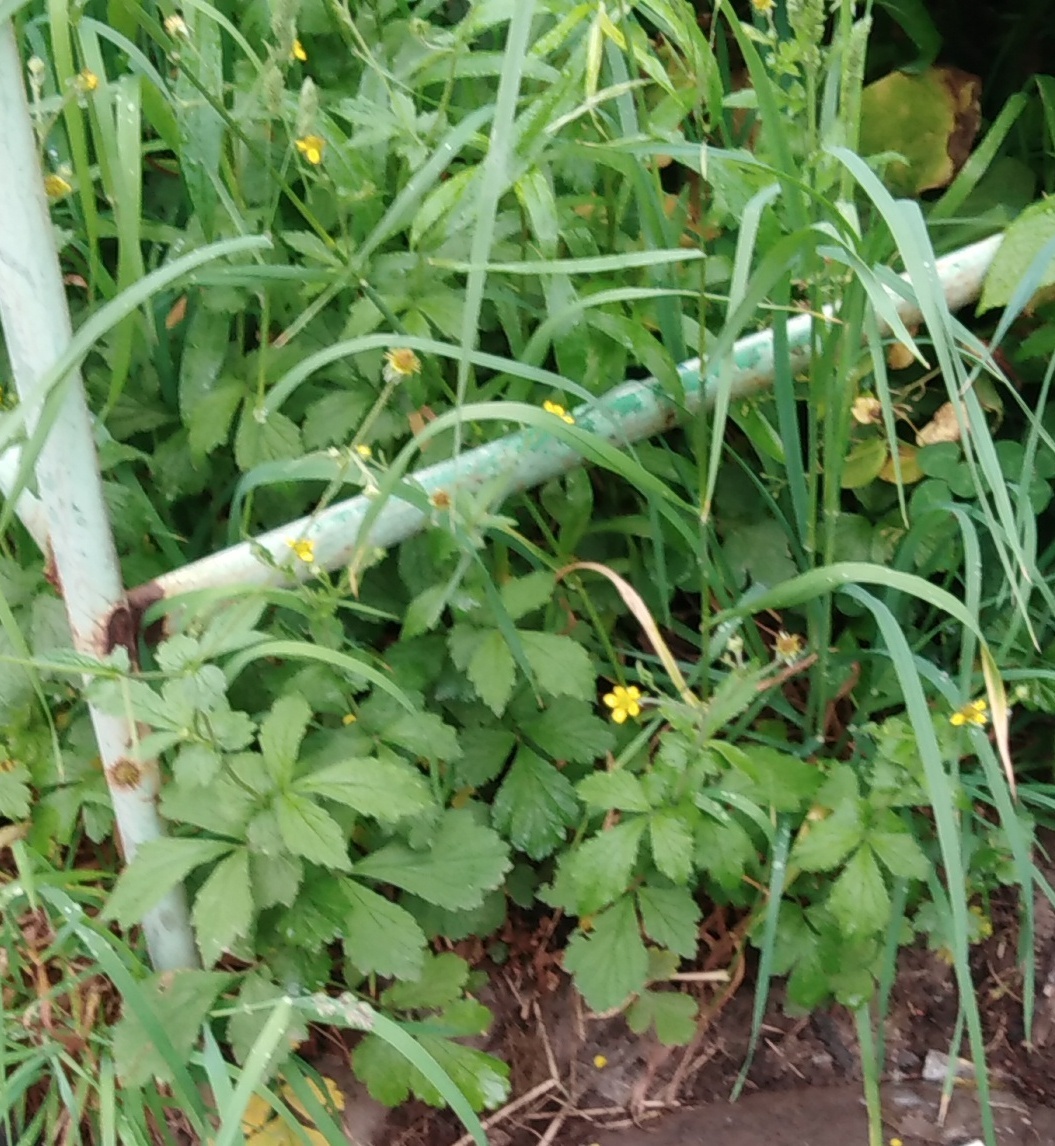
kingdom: Plantae
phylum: Tracheophyta
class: Magnoliopsida
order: Rosales
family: Rosaceae
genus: Geum
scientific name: Geum urbanum
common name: Wood avens
